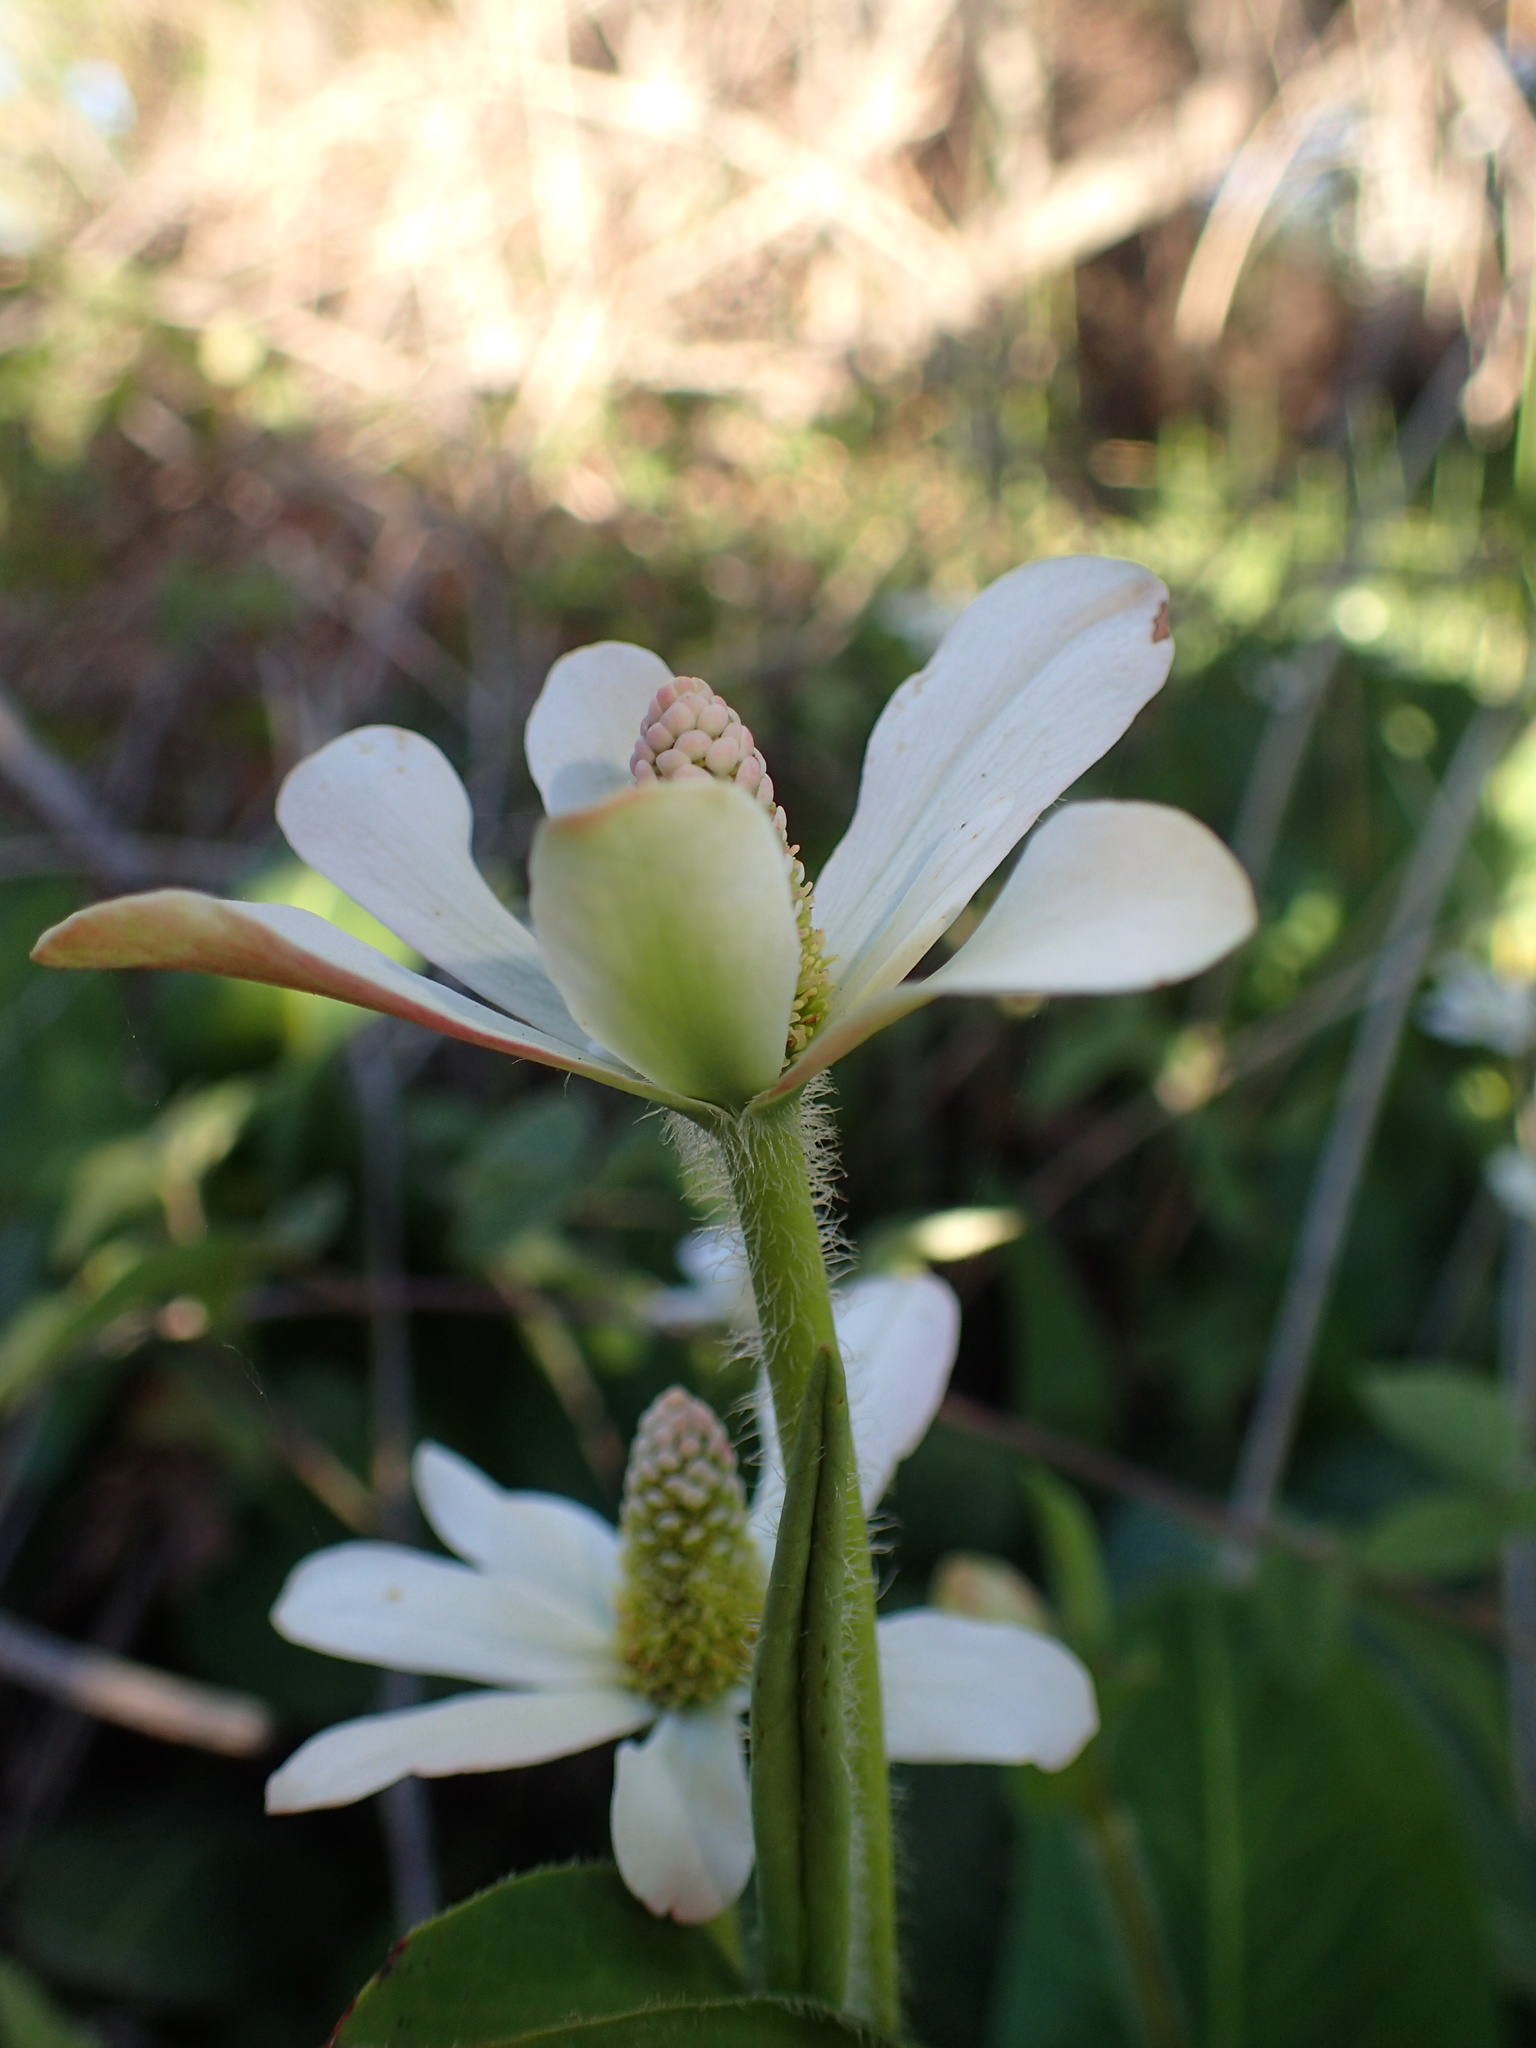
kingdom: Plantae
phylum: Tracheophyta
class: Magnoliopsida
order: Piperales
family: Saururaceae
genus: Anemopsis
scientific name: Anemopsis californica
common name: Apache-beads
